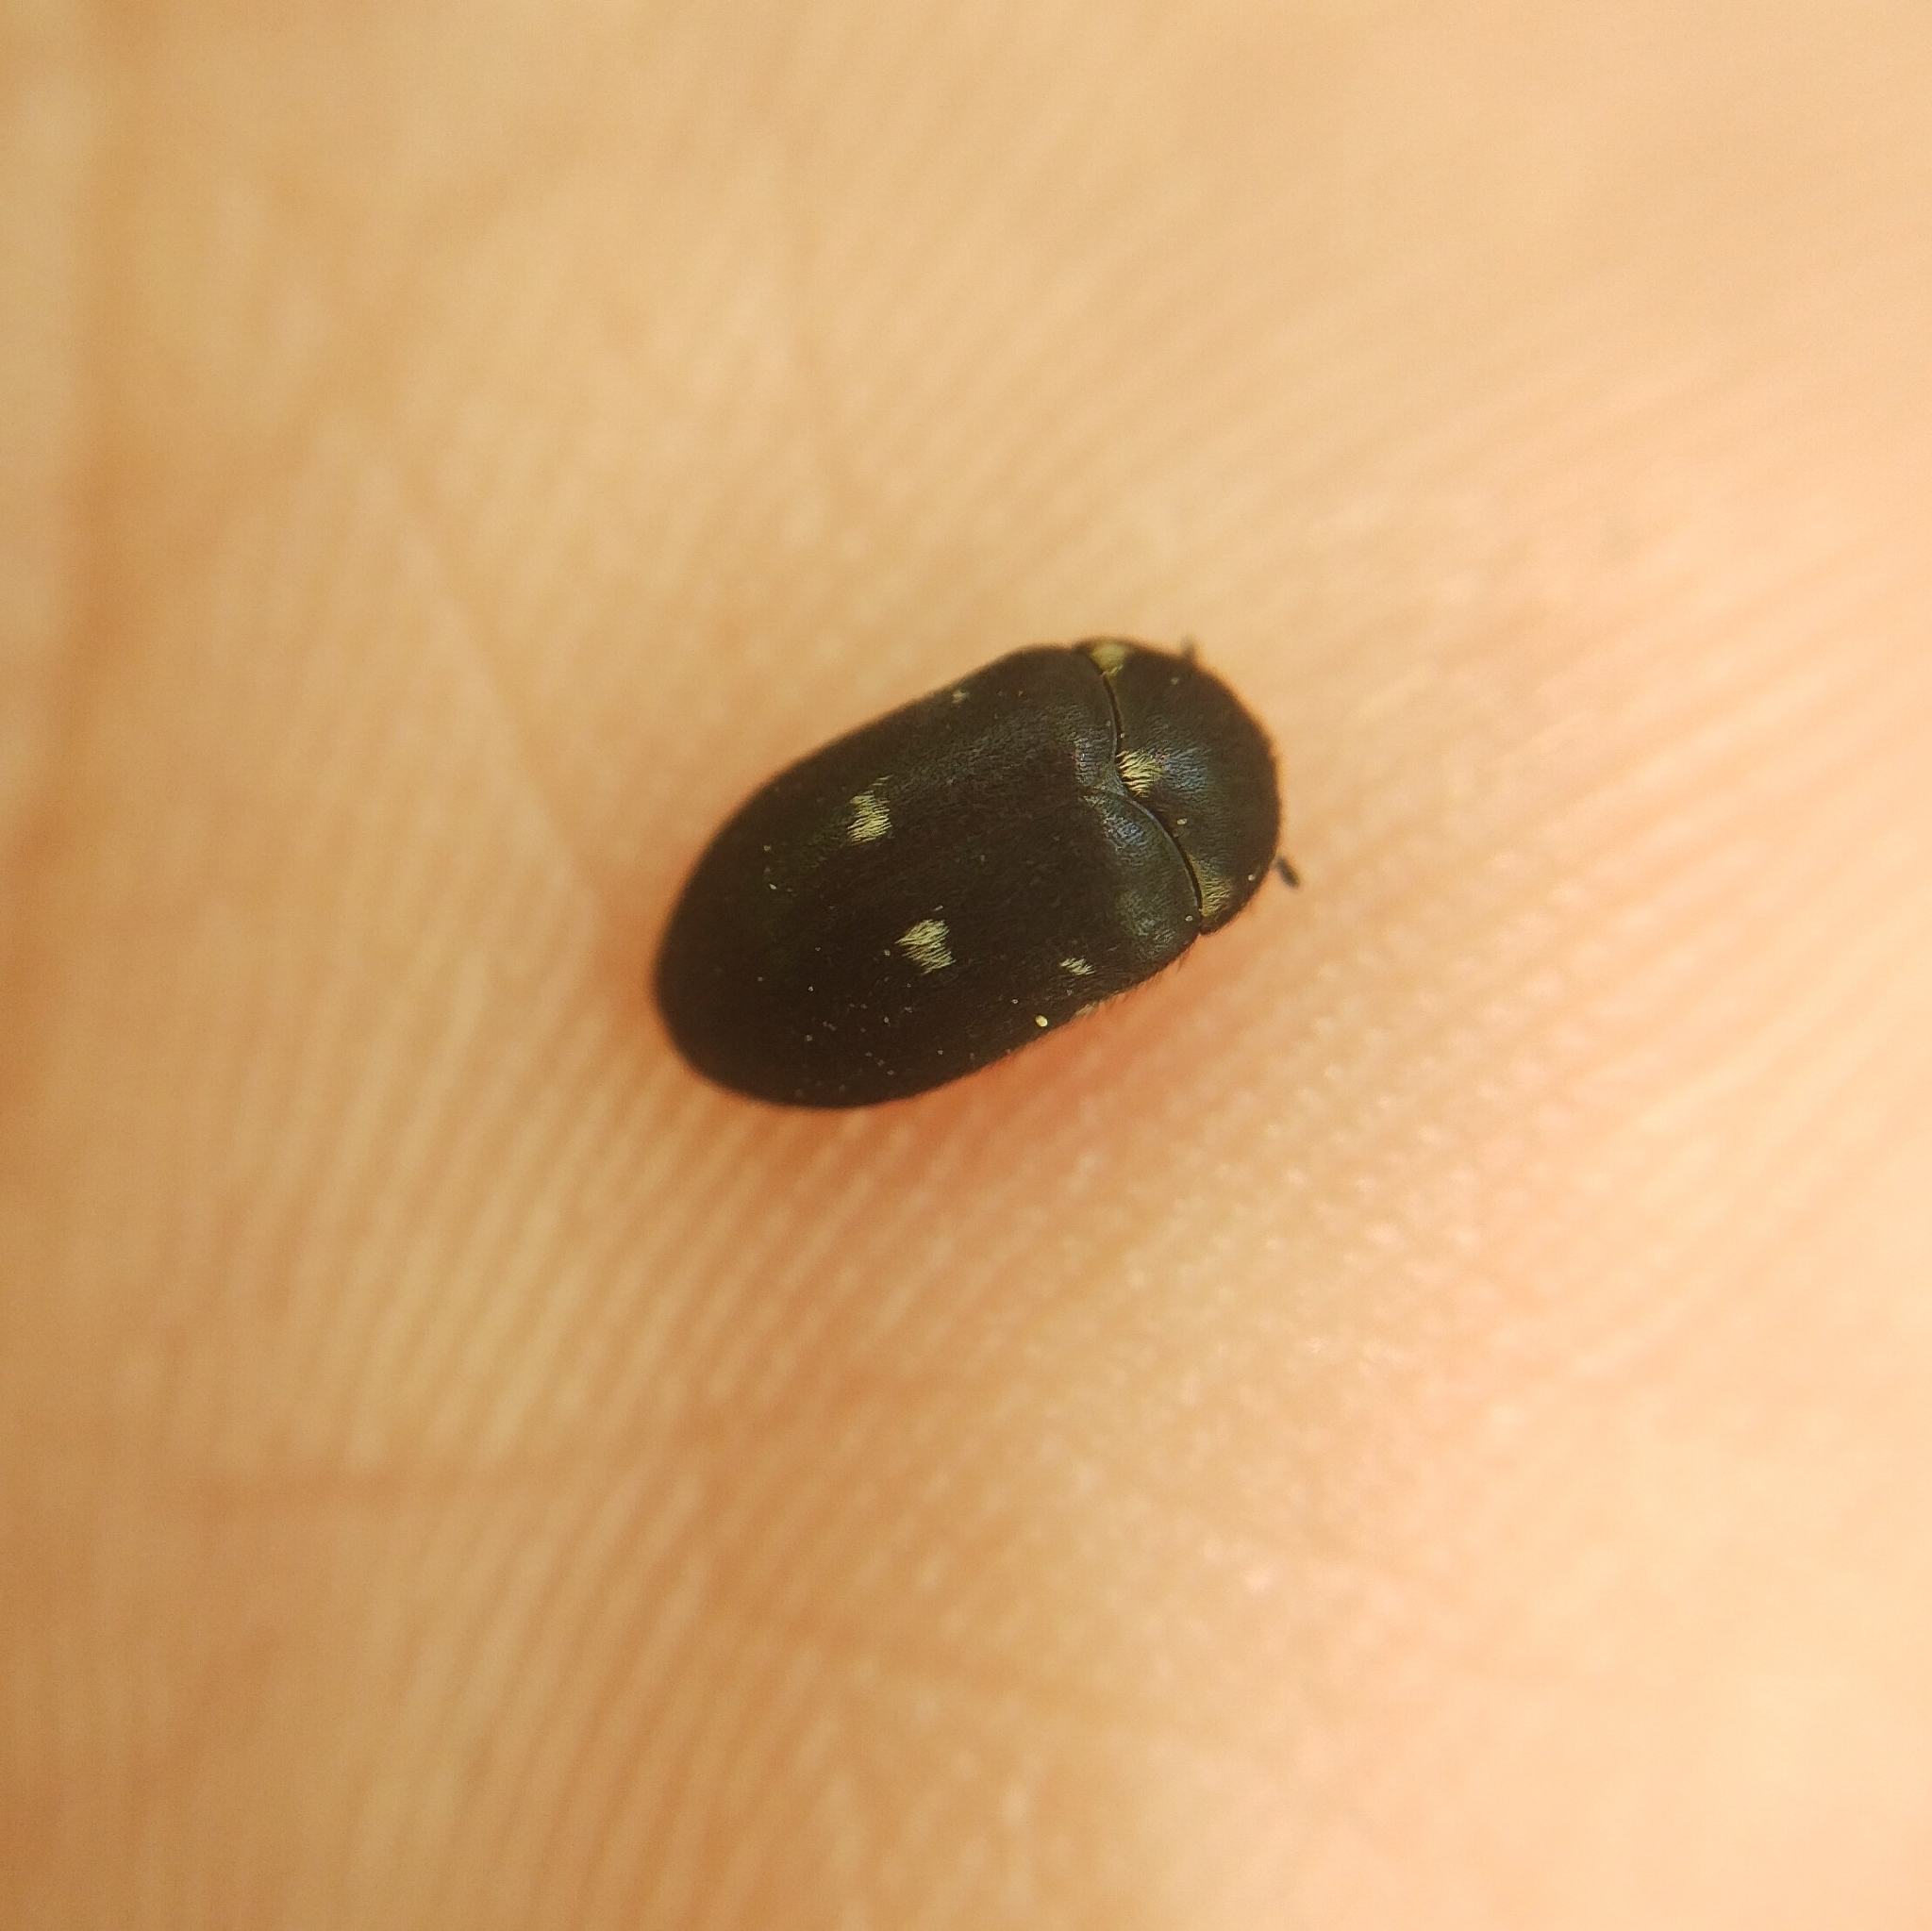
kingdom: Animalia
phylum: Arthropoda
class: Insecta
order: Coleoptera
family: Dermestidae
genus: Attagenus
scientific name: Attagenus pellio
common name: Two-spotted carpet beetle
